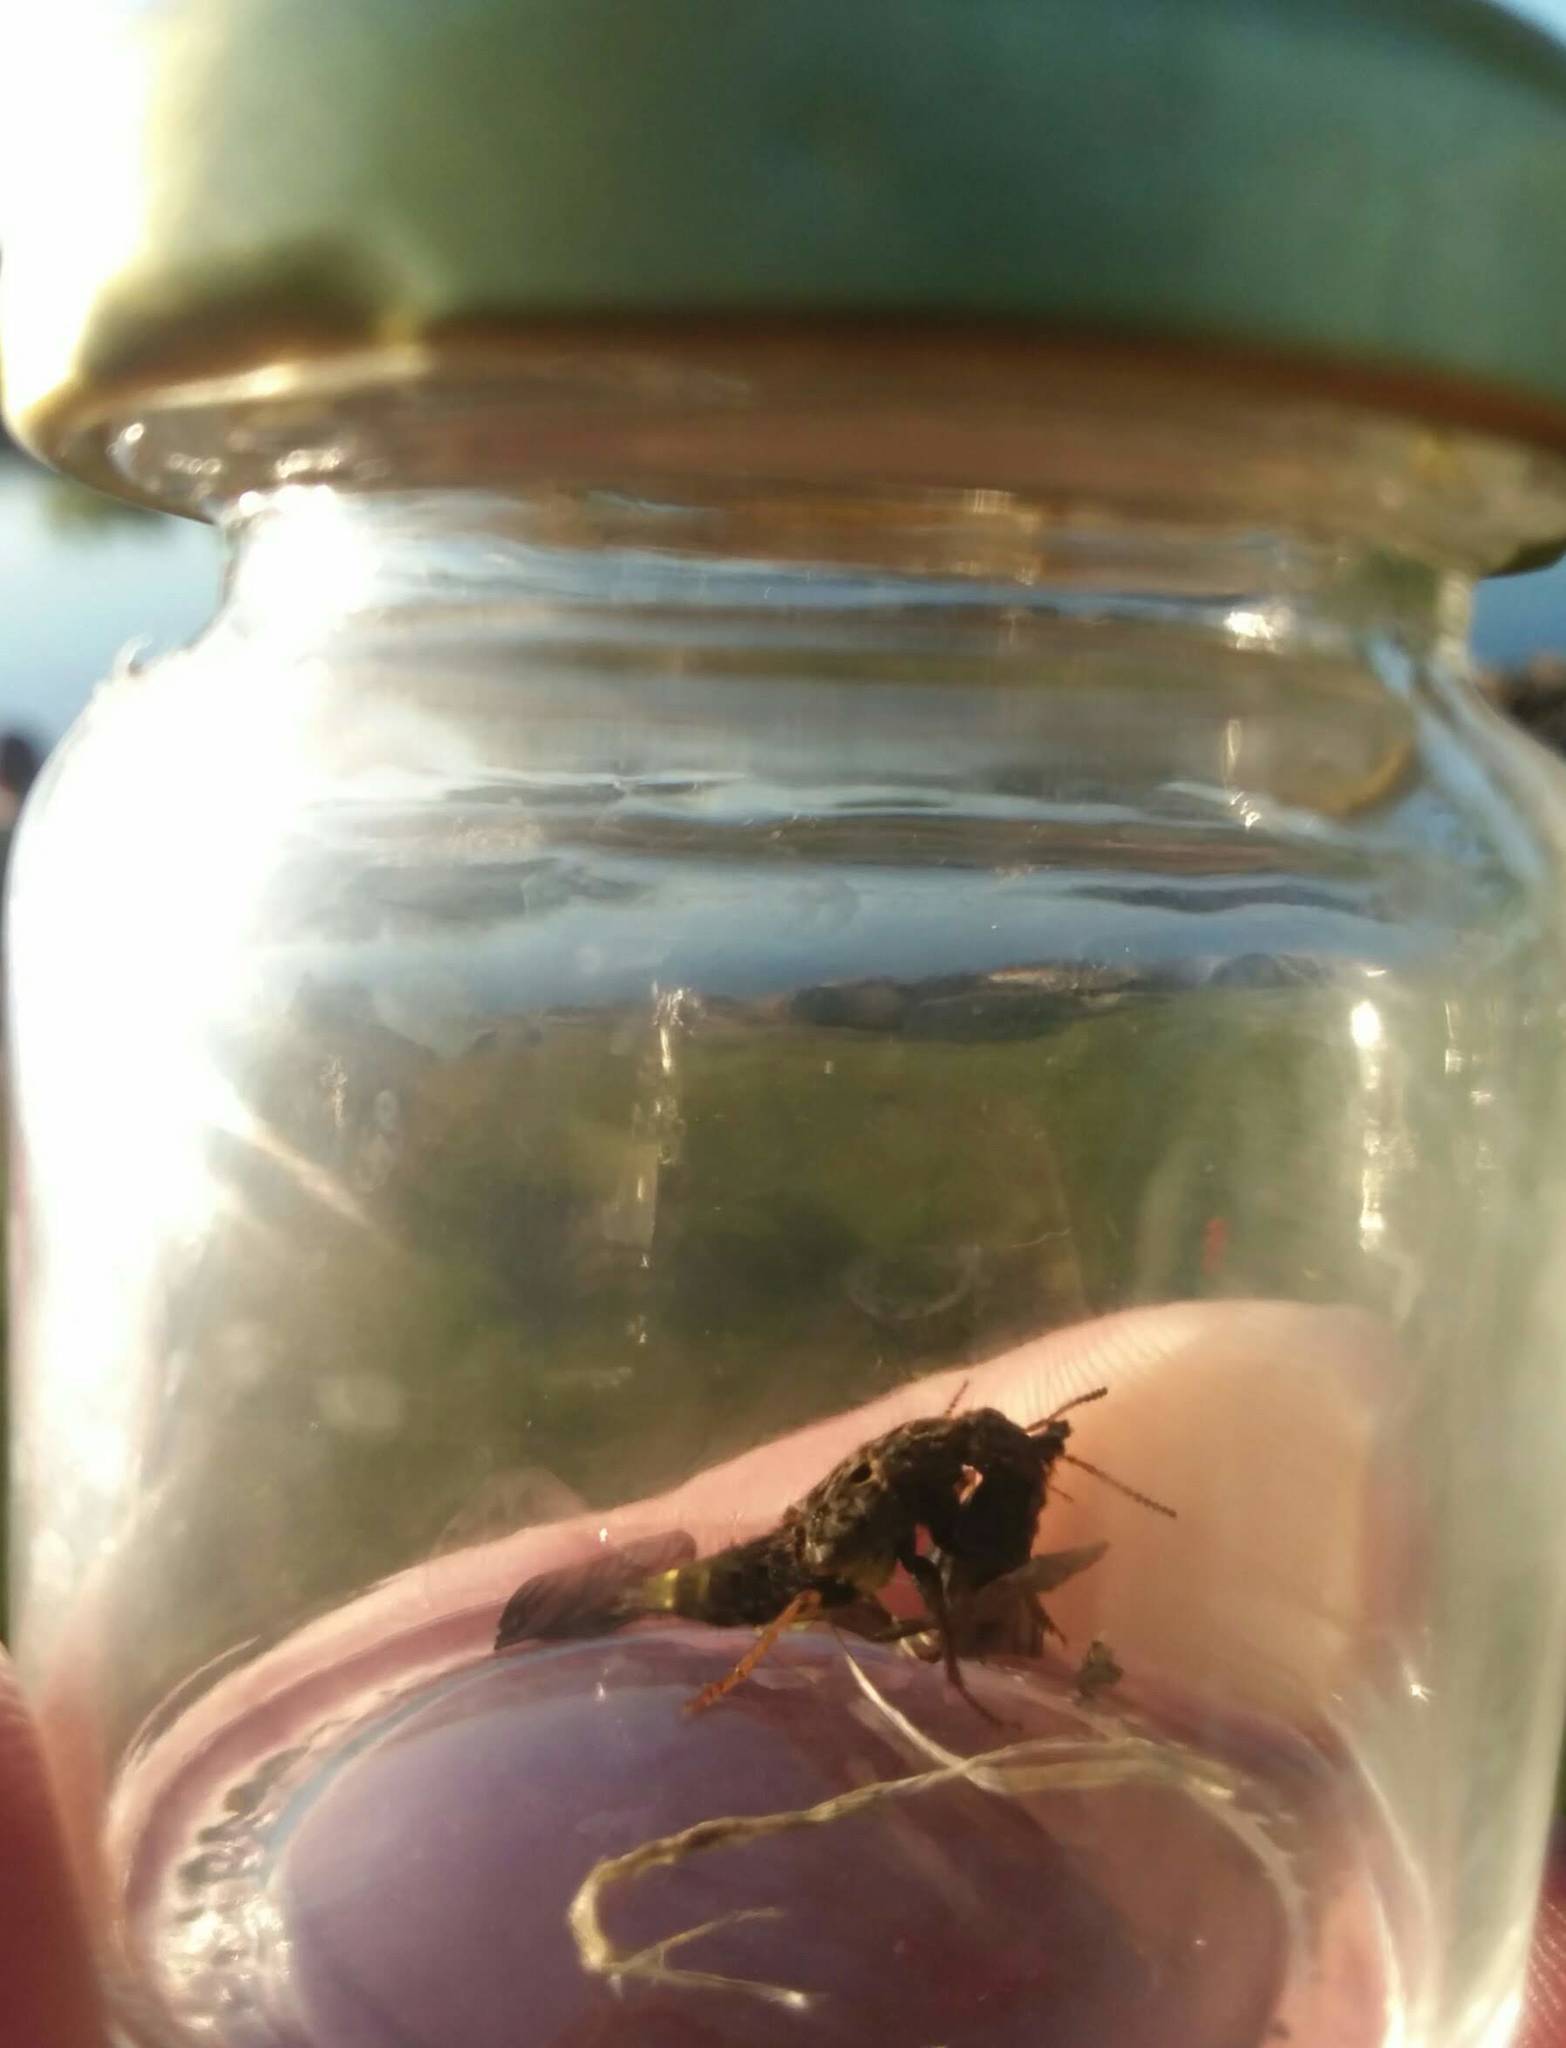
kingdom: Animalia
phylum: Arthropoda
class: Insecta
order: Coleoptera
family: Staphylinidae
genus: Ontholestes
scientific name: Ontholestes cingulatus
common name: Gold-and-brown rove beetle
